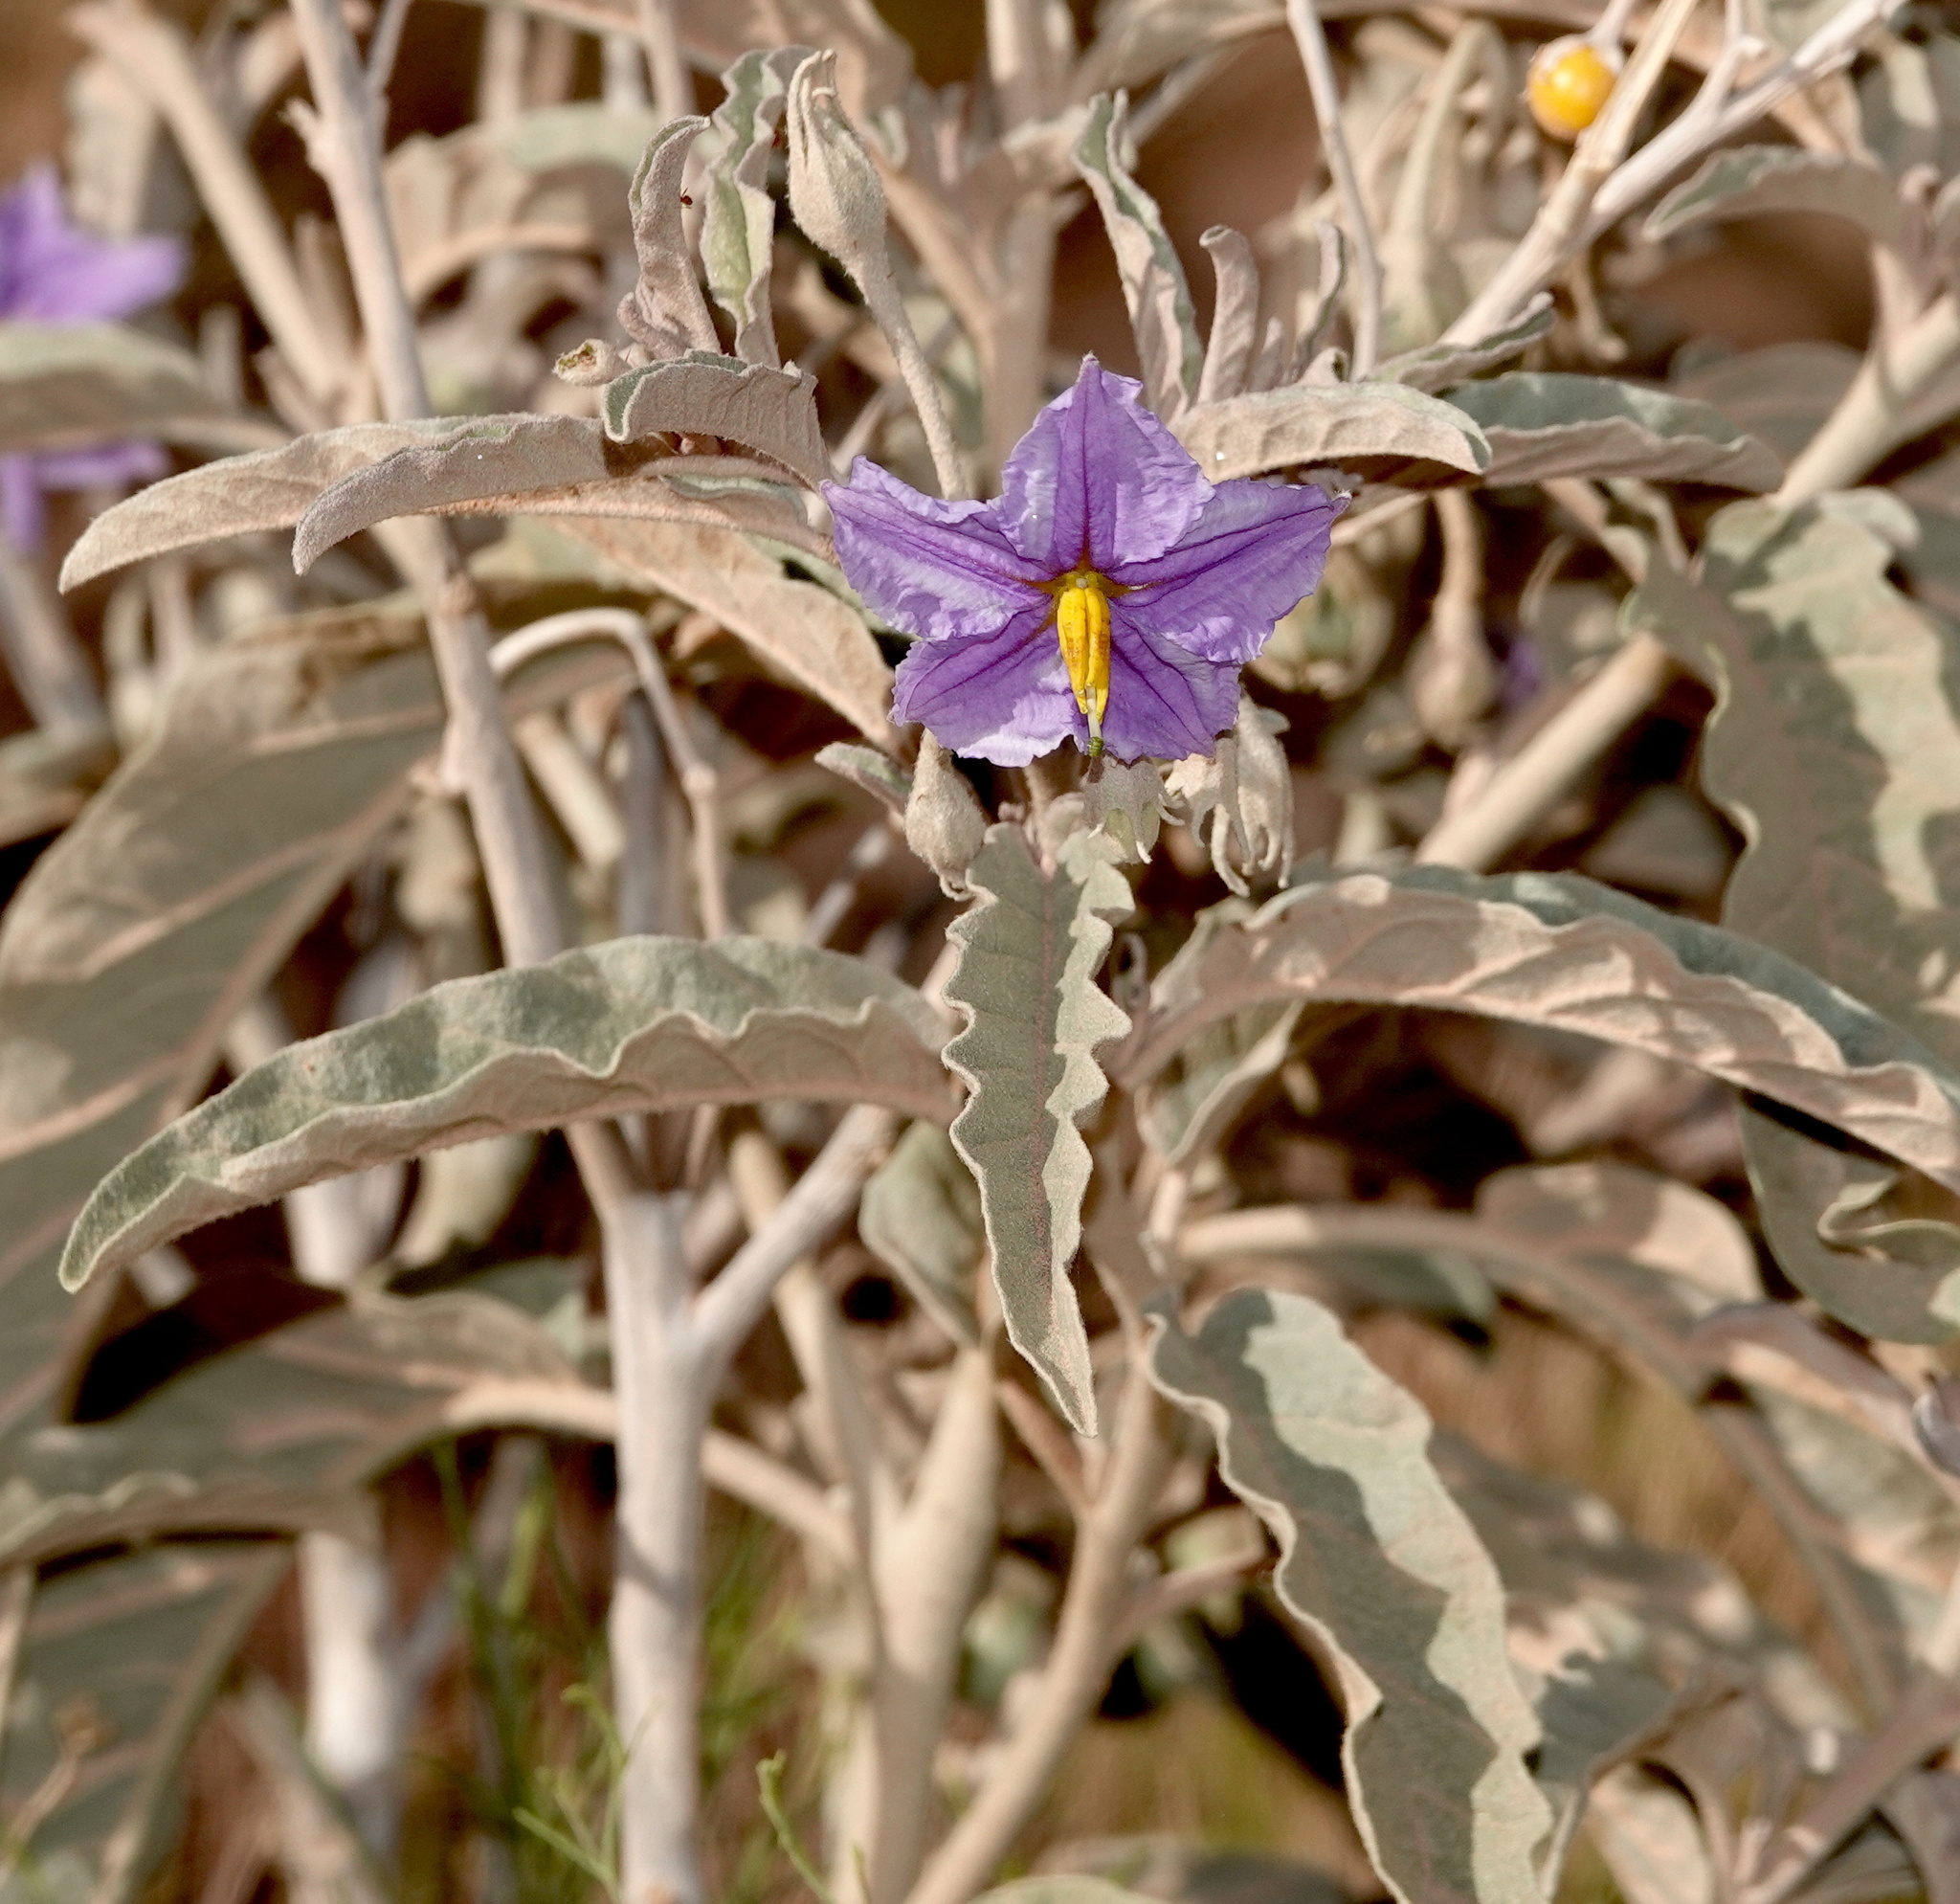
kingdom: Plantae
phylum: Tracheophyta
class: Magnoliopsida
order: Solanales
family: Solanaceae
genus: Solanum
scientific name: Solanum elaeagnifolium
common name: Silverleaf nightshade
